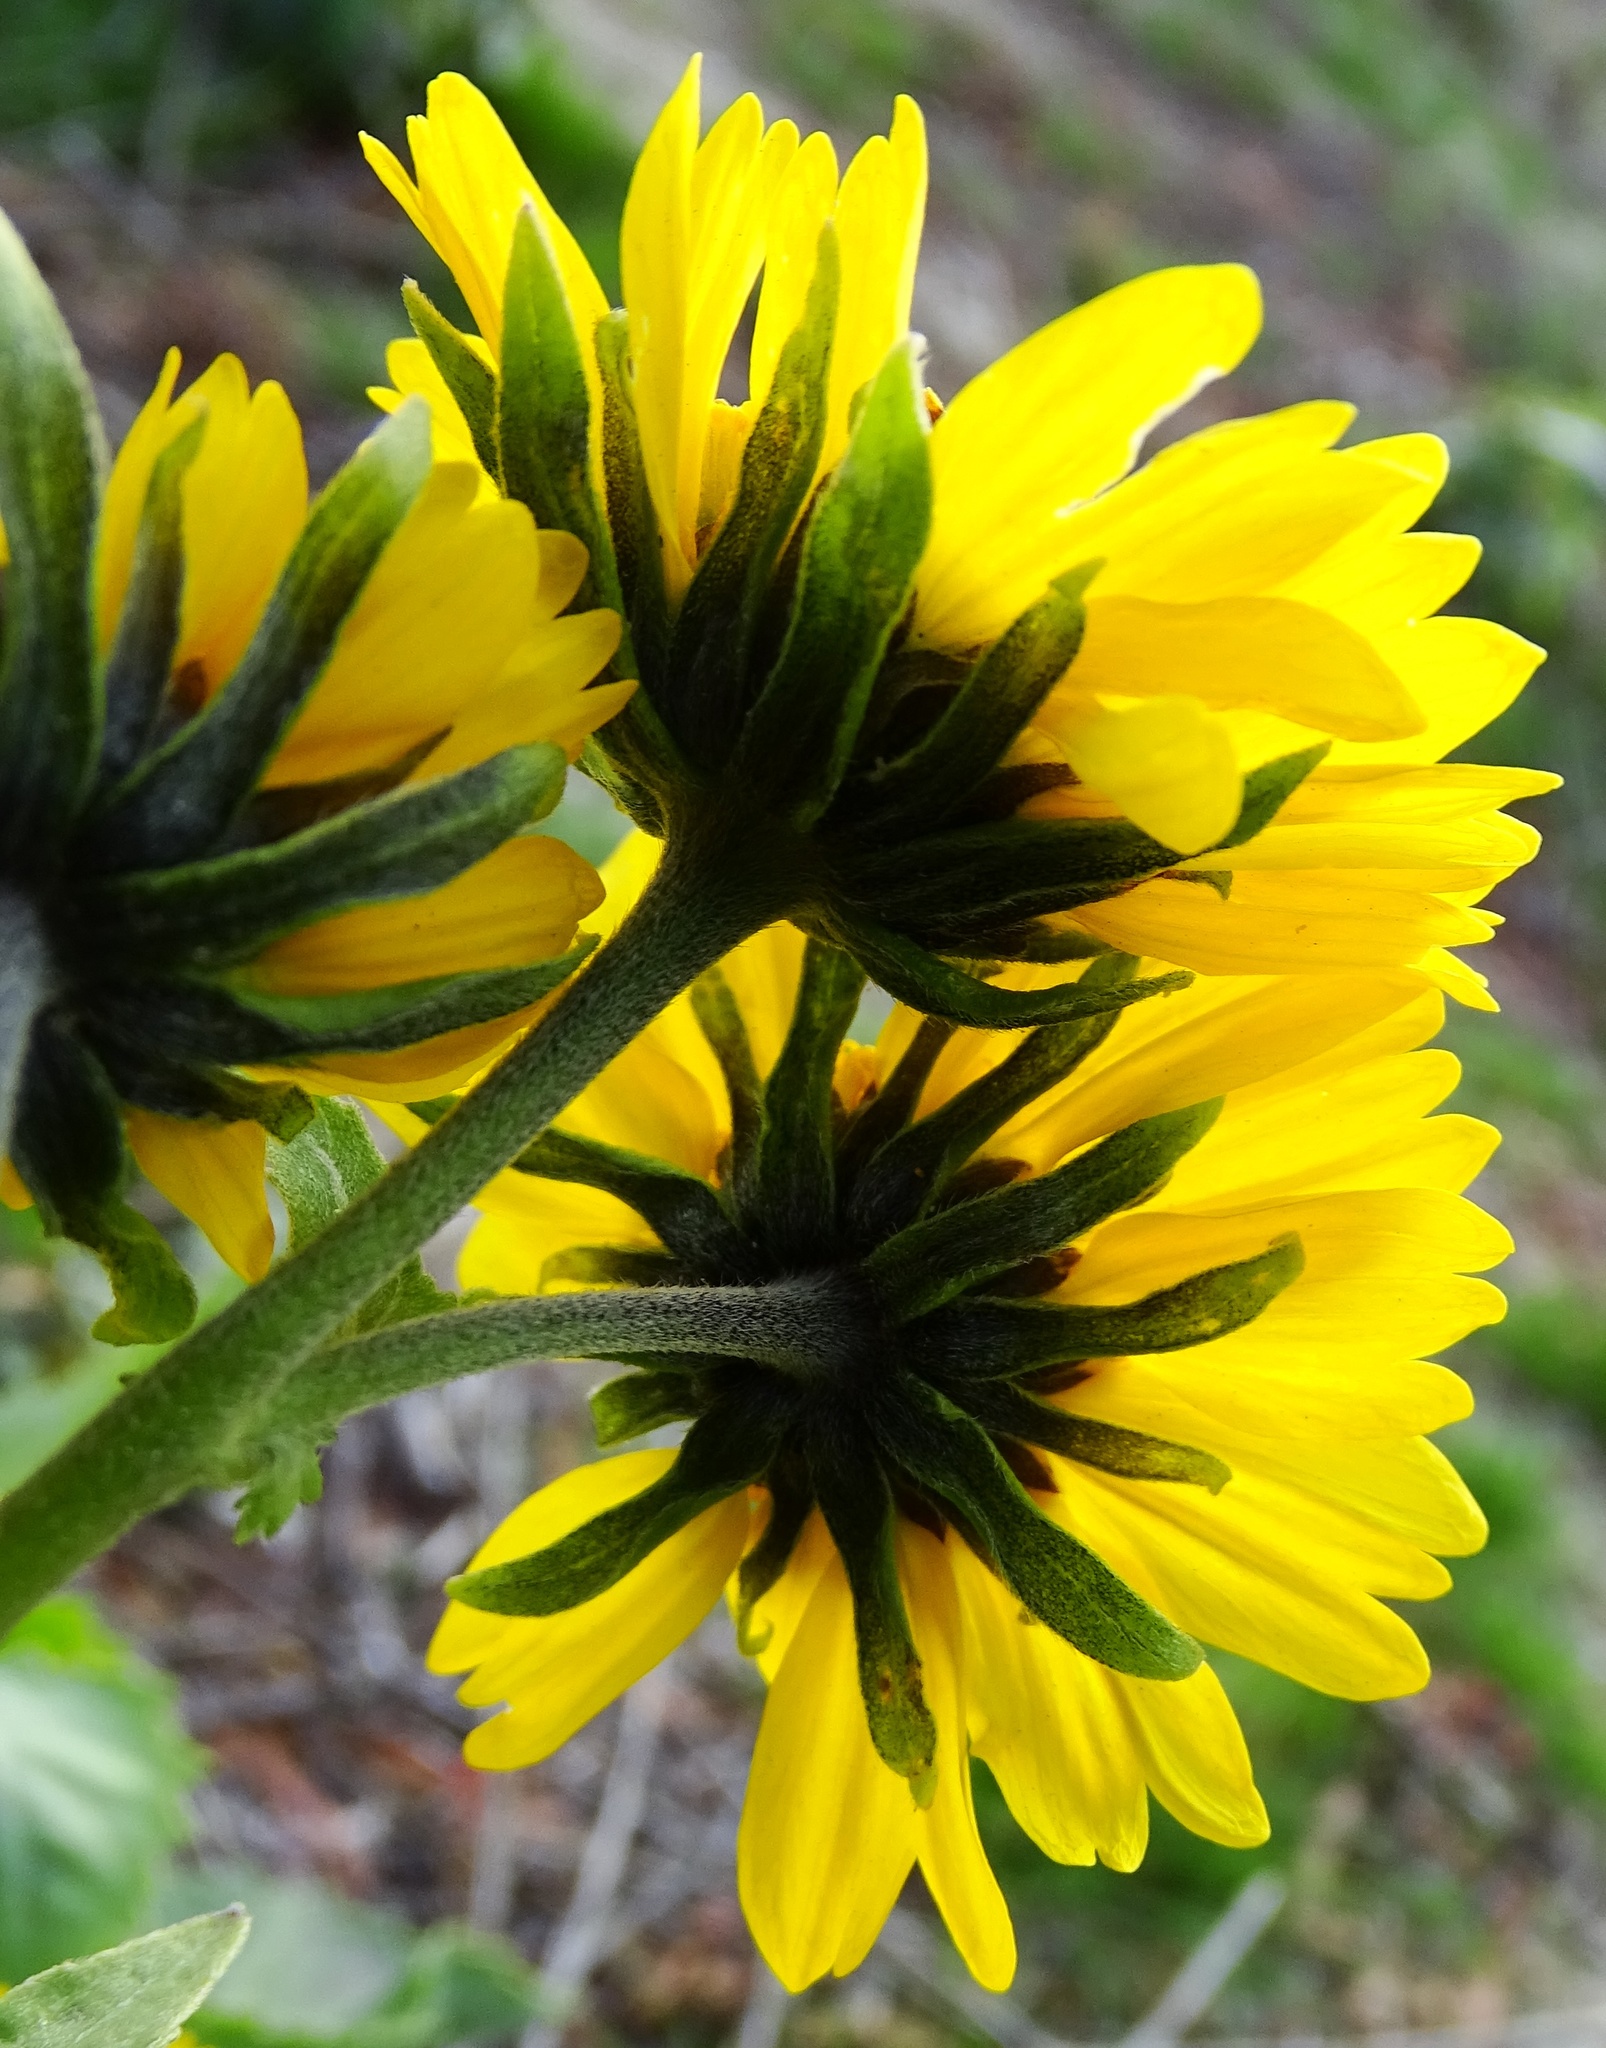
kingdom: Plantae
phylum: Tracheophyta
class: Magnoliopsida
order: Asterales
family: Asteraceae
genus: Verbesina
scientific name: Verbesina encelioides
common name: Golden crownbeard
